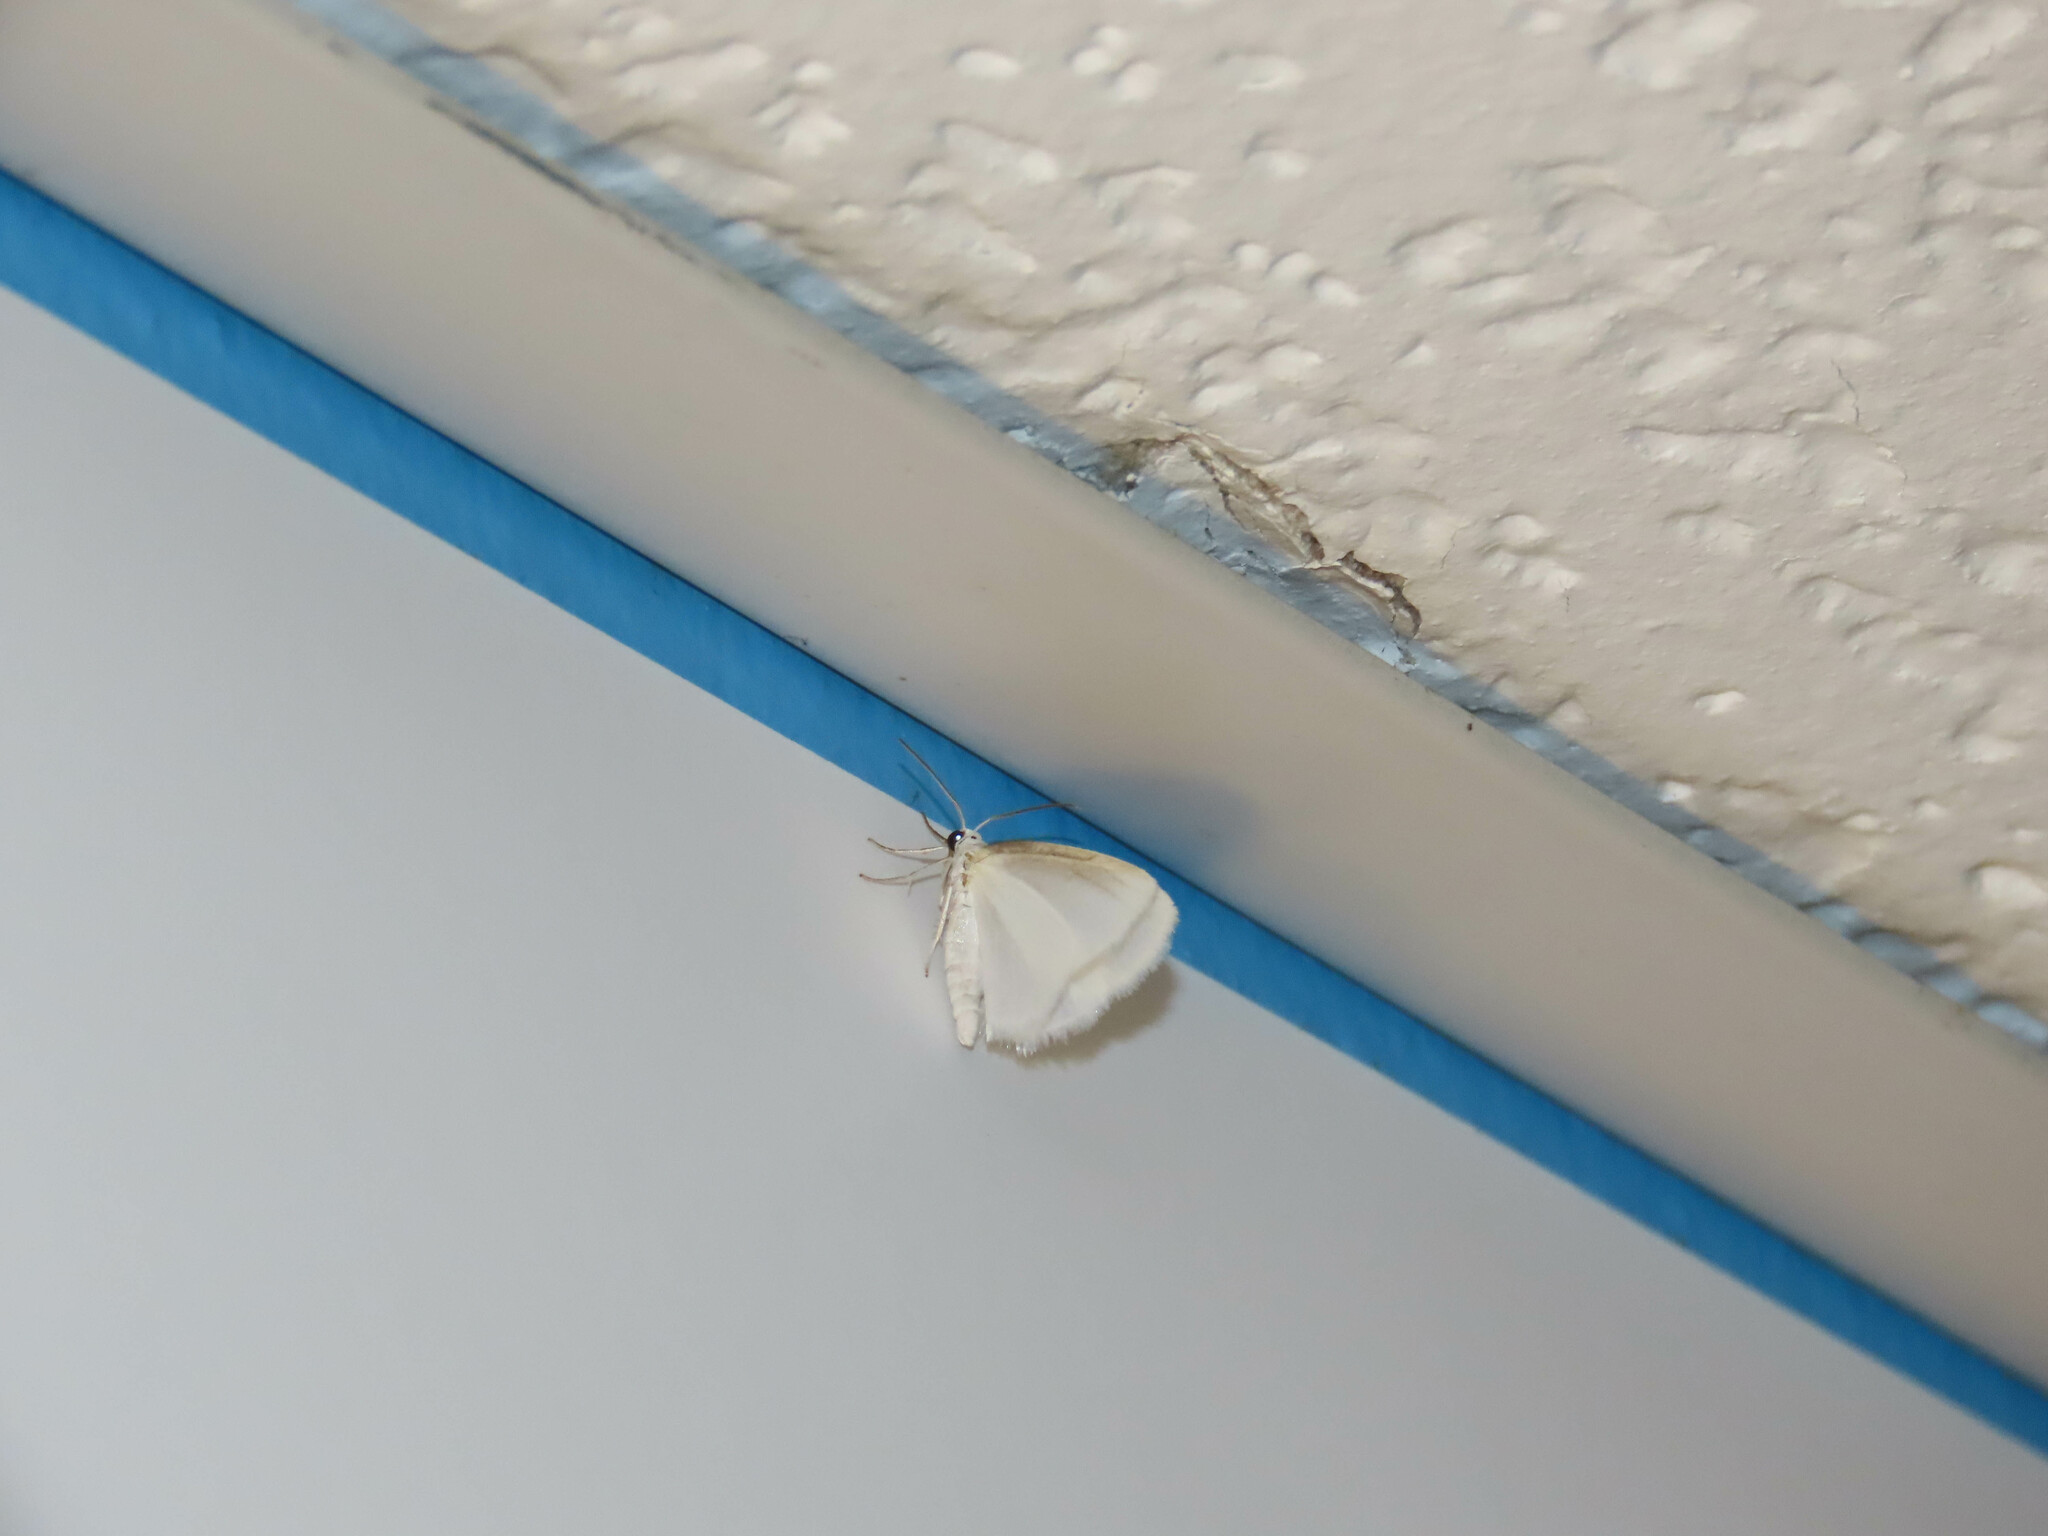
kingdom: Animalia
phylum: Arthropoda
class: Insecta
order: Lepidoptera
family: Geometridae
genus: Lomographa
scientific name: Lomographa vestaliata
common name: White spring moth
